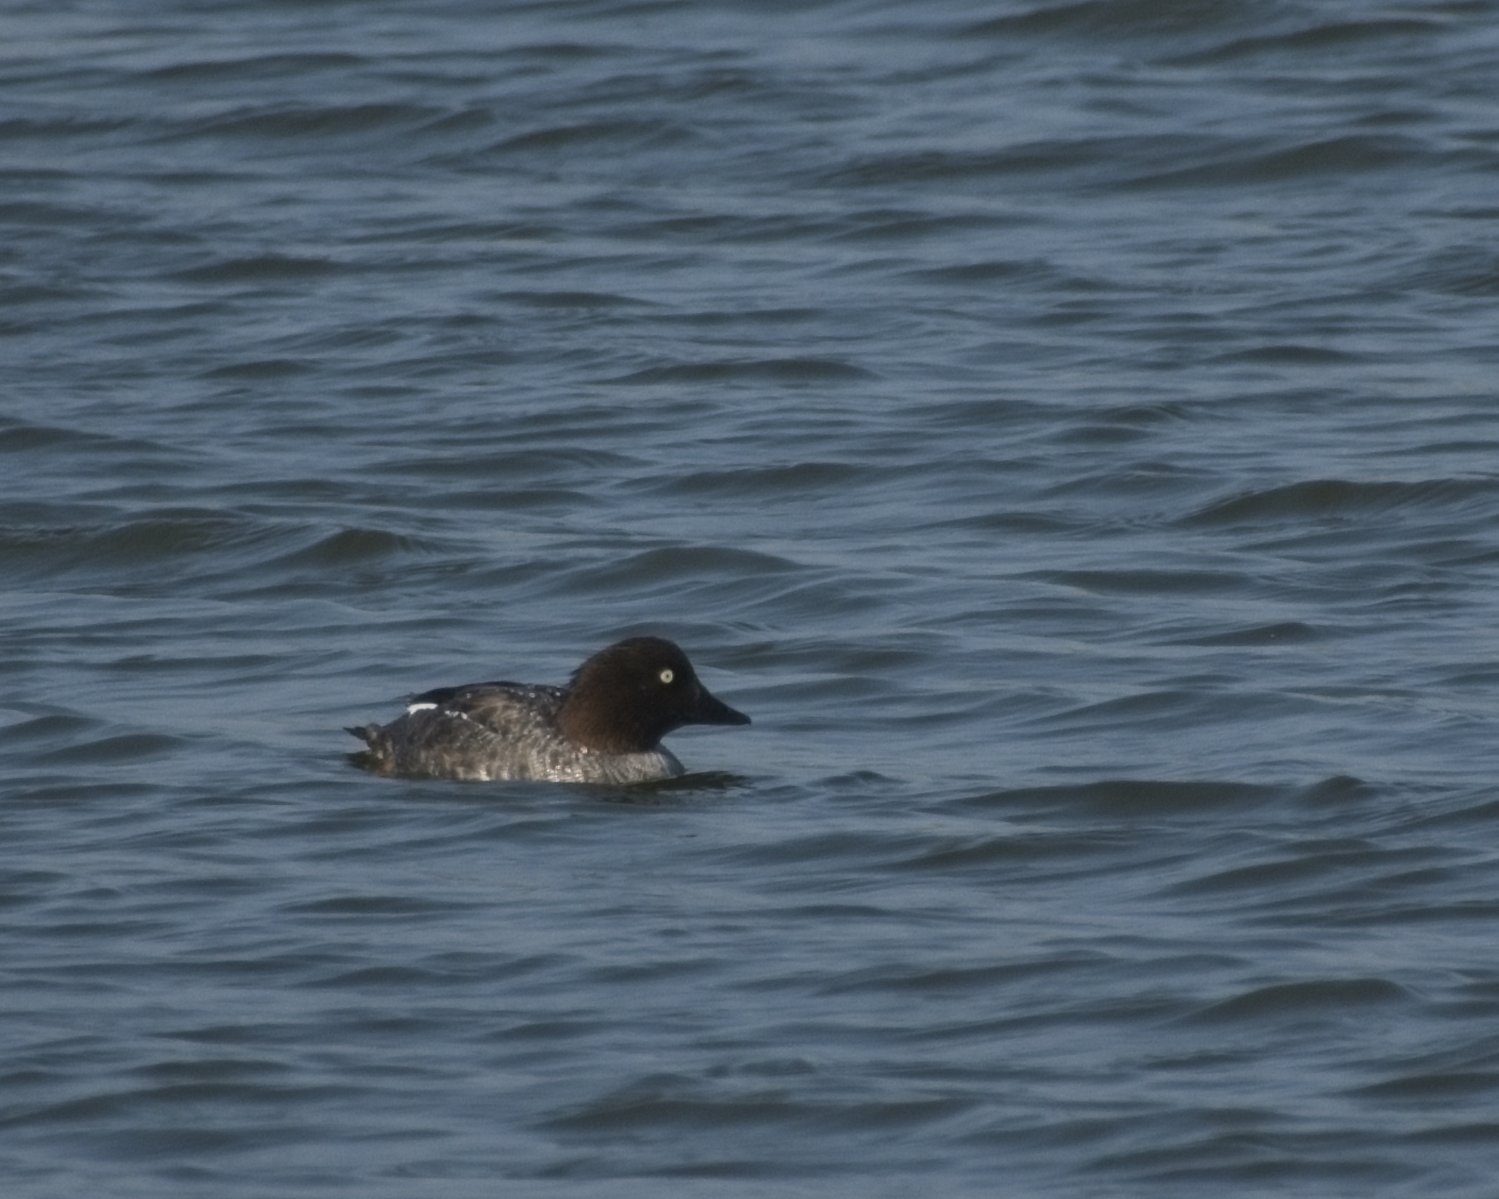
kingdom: Animalia
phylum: Chordata
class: Aves
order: Anseriformes
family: Anatidae
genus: Bucephala
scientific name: Bucephala clangula
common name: Common goldeneye
